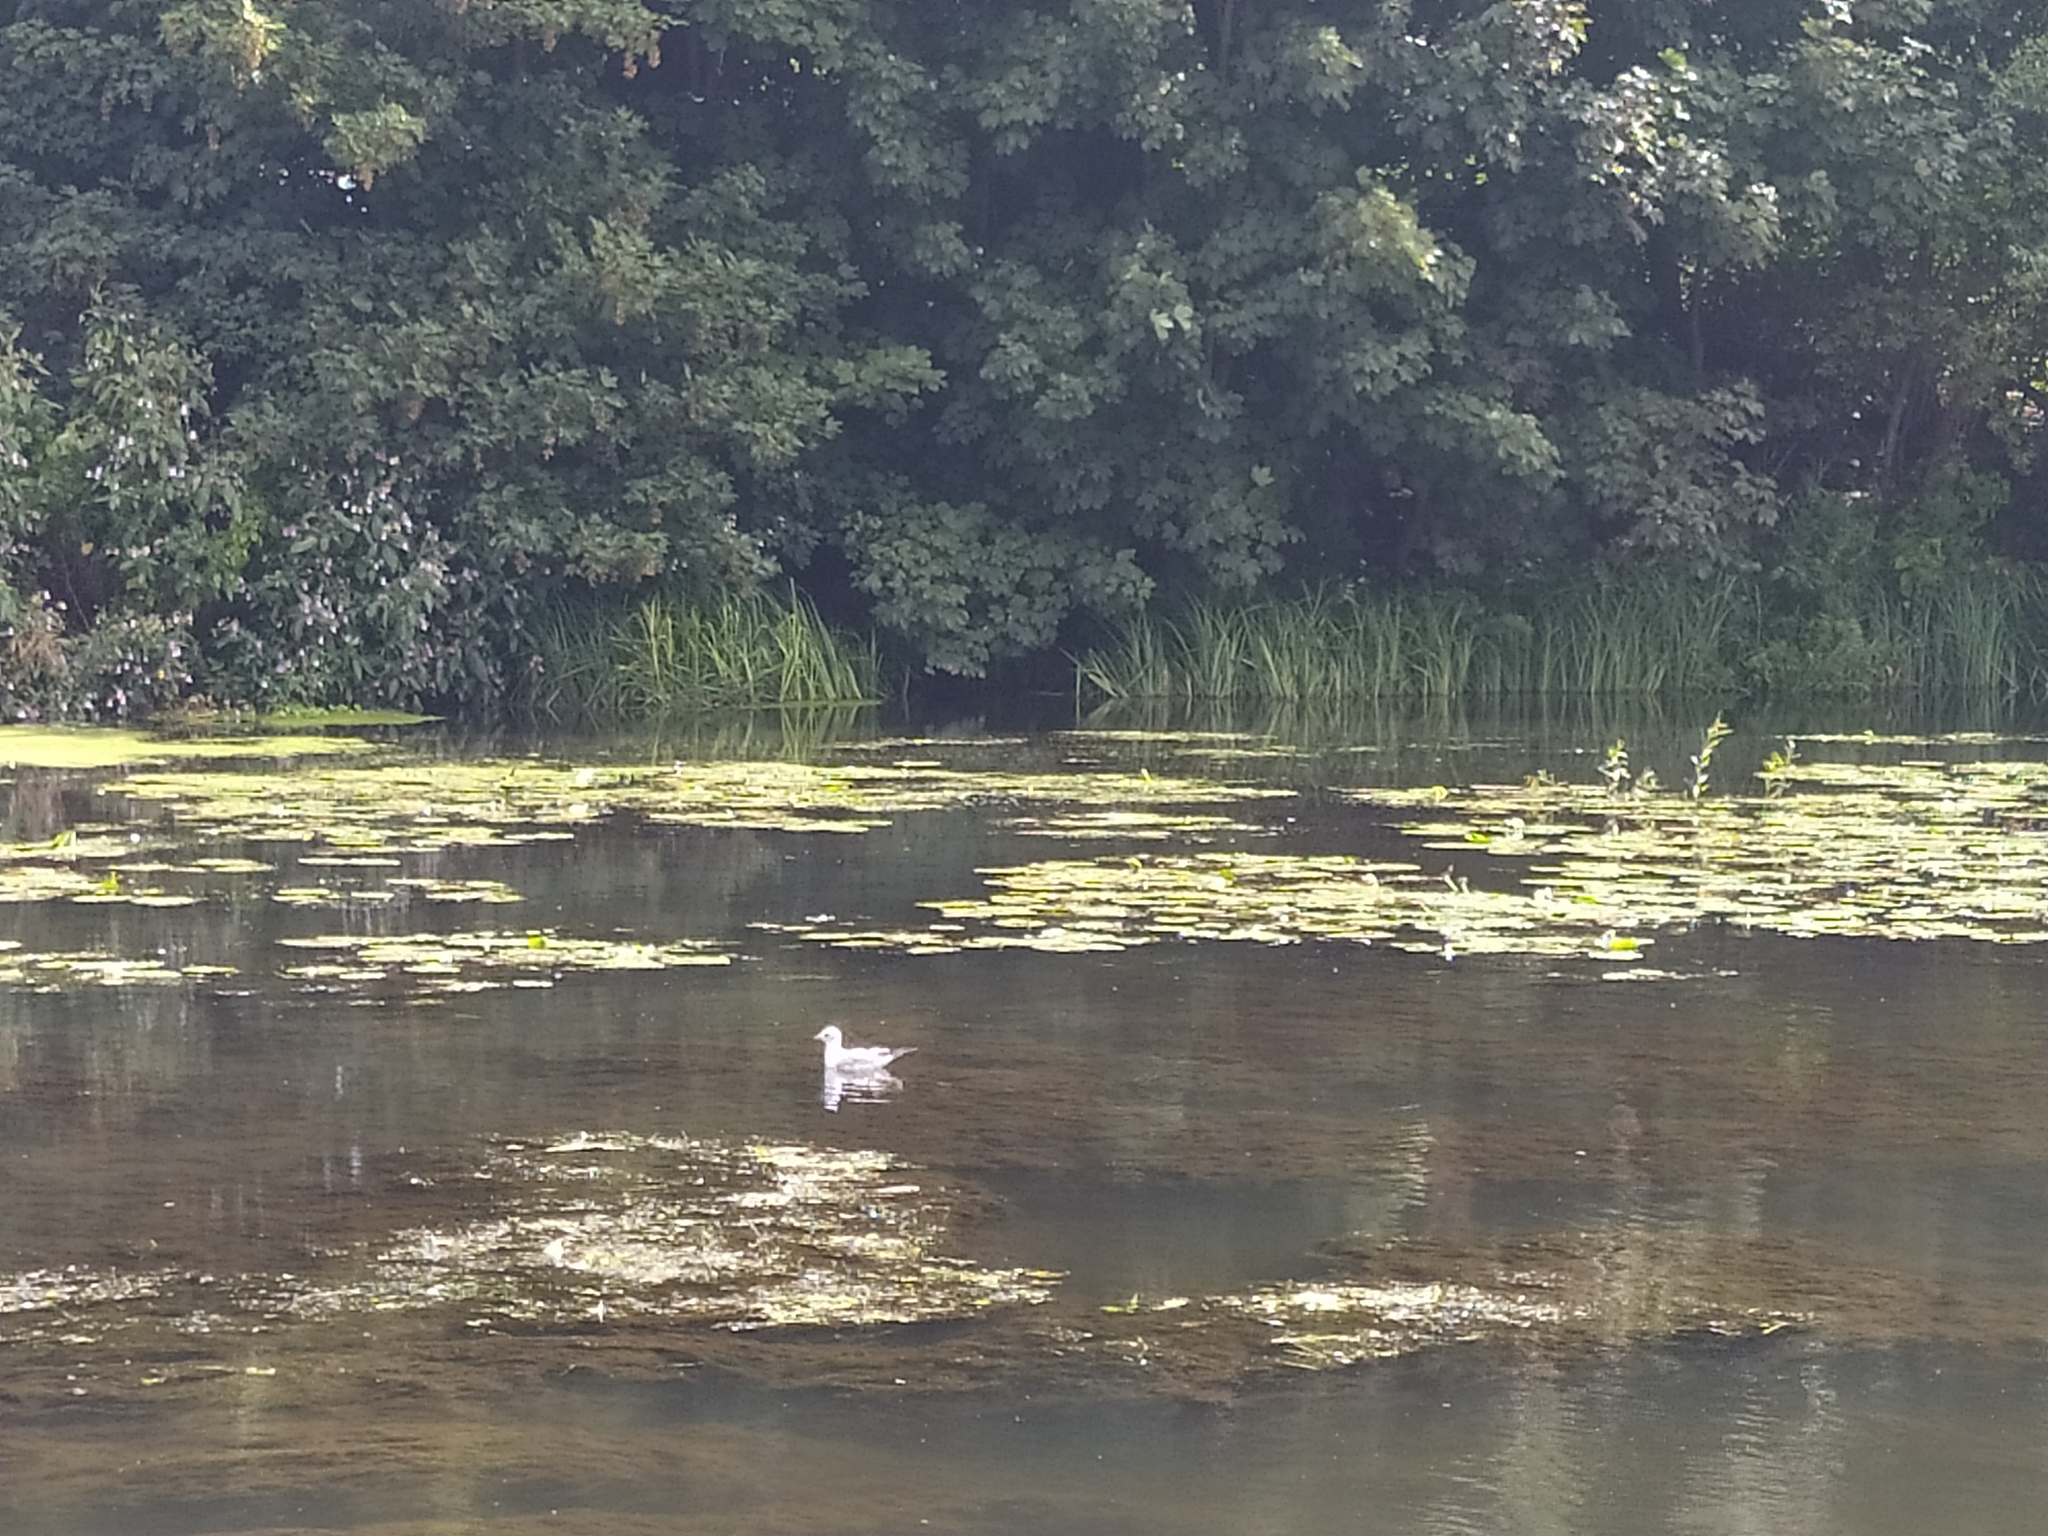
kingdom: Animalia
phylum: Chordata
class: Aves
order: Charadriiformes
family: Laridae
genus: Chroicocephalus
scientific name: Chroicocephalus ridibundus
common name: Black-headed gull
